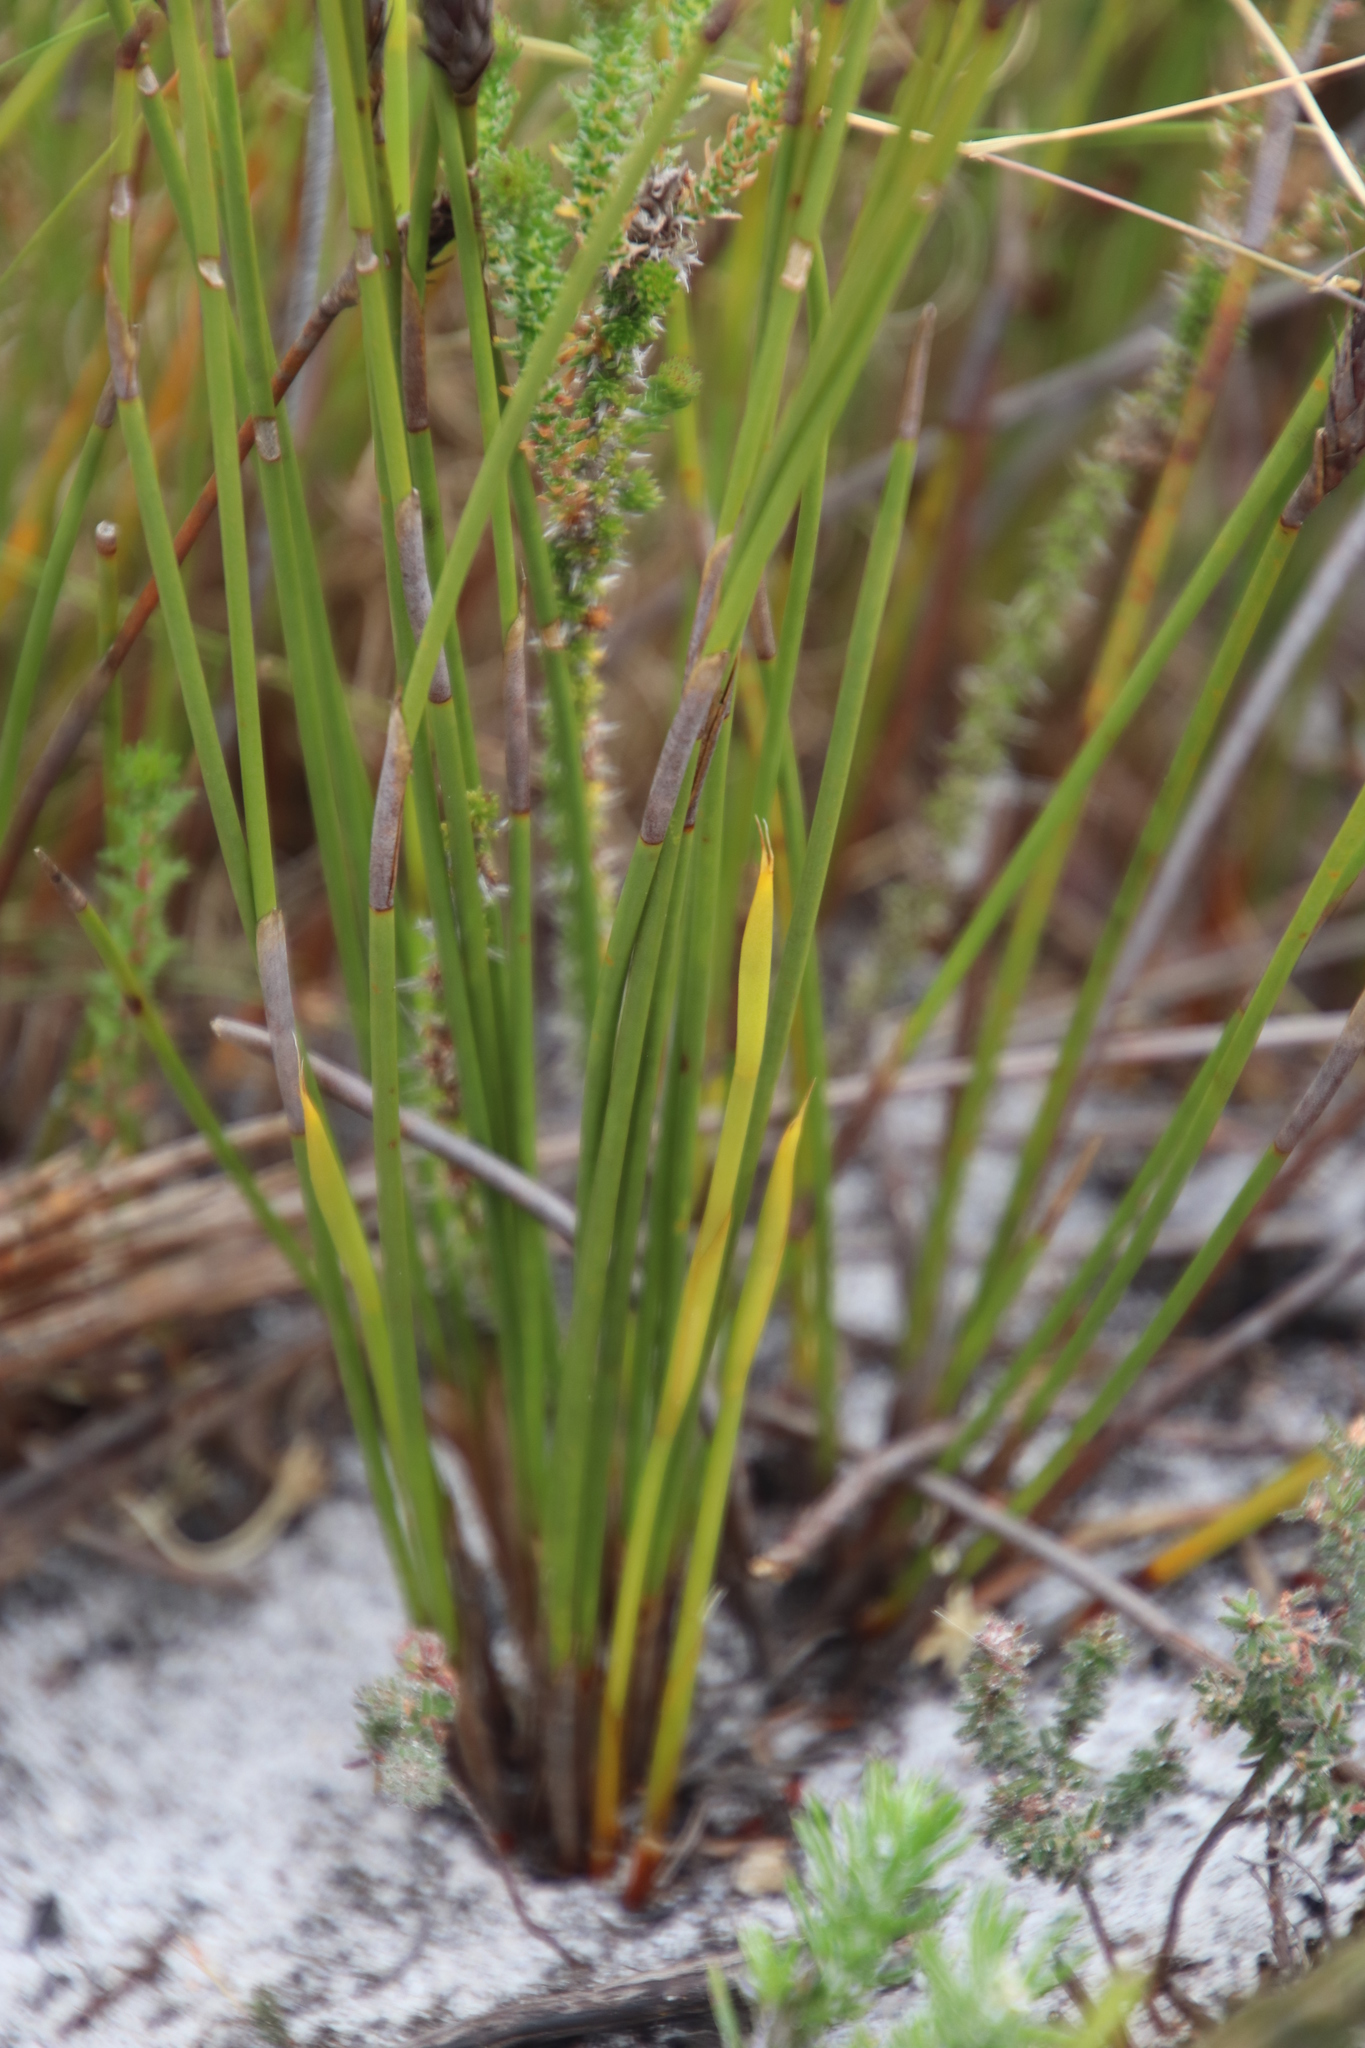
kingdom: Plantae
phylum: Tracheophyta
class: Liliopsida
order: Poales
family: Restionaceae
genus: Hypodiscus
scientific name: Hypodiscus aristatus
